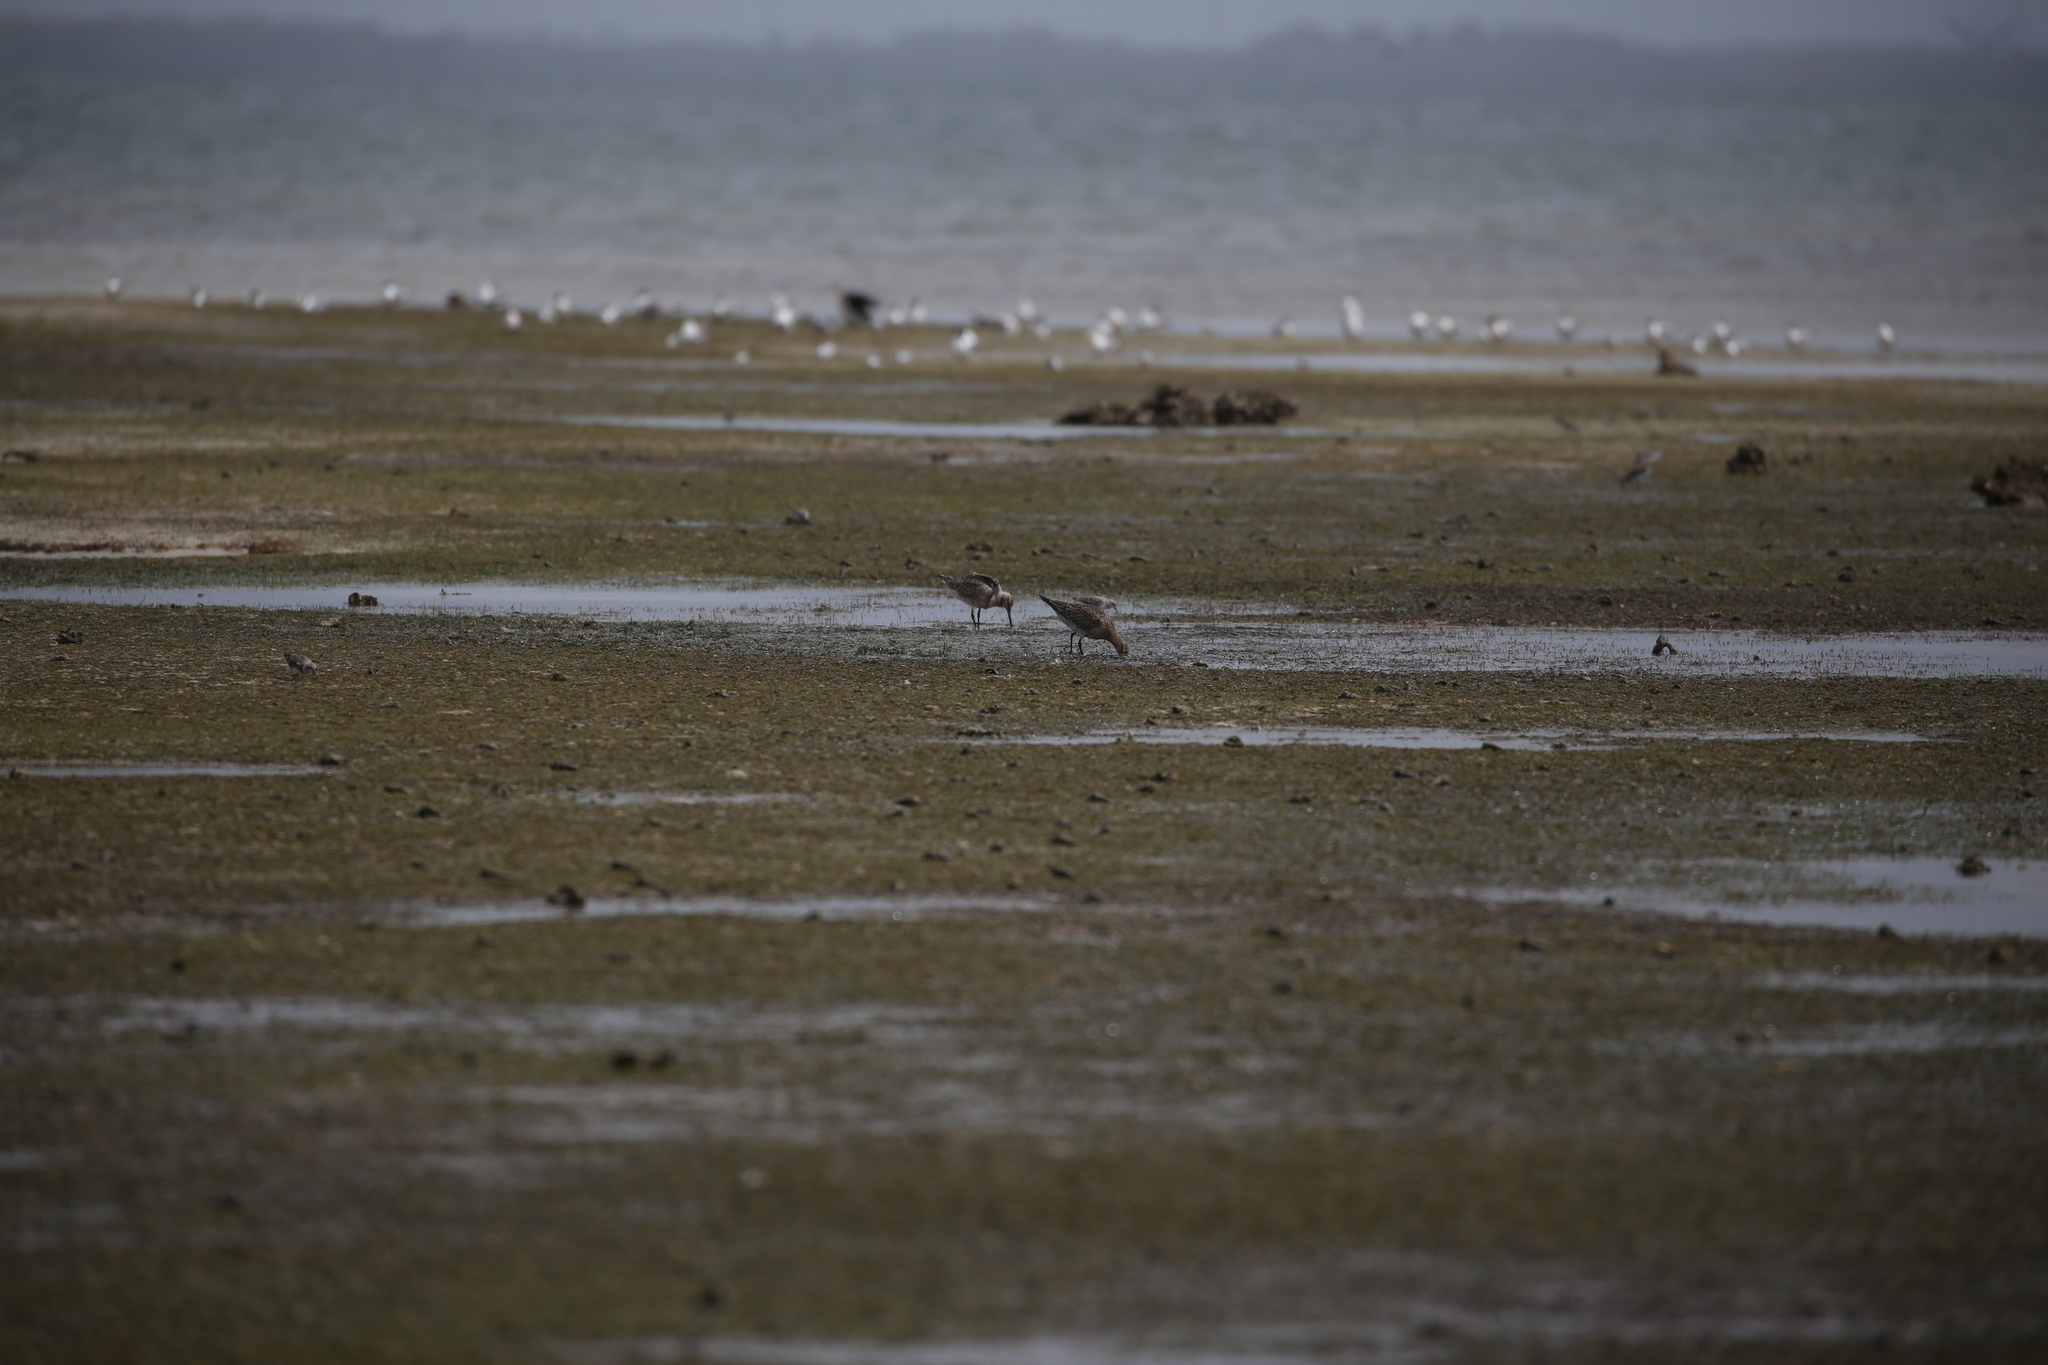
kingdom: Animalia
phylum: Chordata
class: Aves
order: Charadriiformes
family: Scolopacidae
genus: Limosa
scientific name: Limosa lapponica
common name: Bar-tailed godwit
